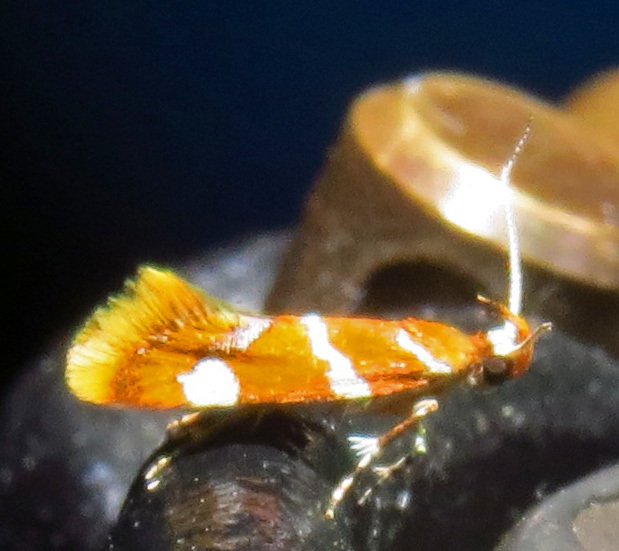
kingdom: Animalia
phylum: Arthropoda
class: Insecta
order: Lepidoptera
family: Oecophoridae
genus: Promalactis
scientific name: Promalactis suzukiella
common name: Moth
